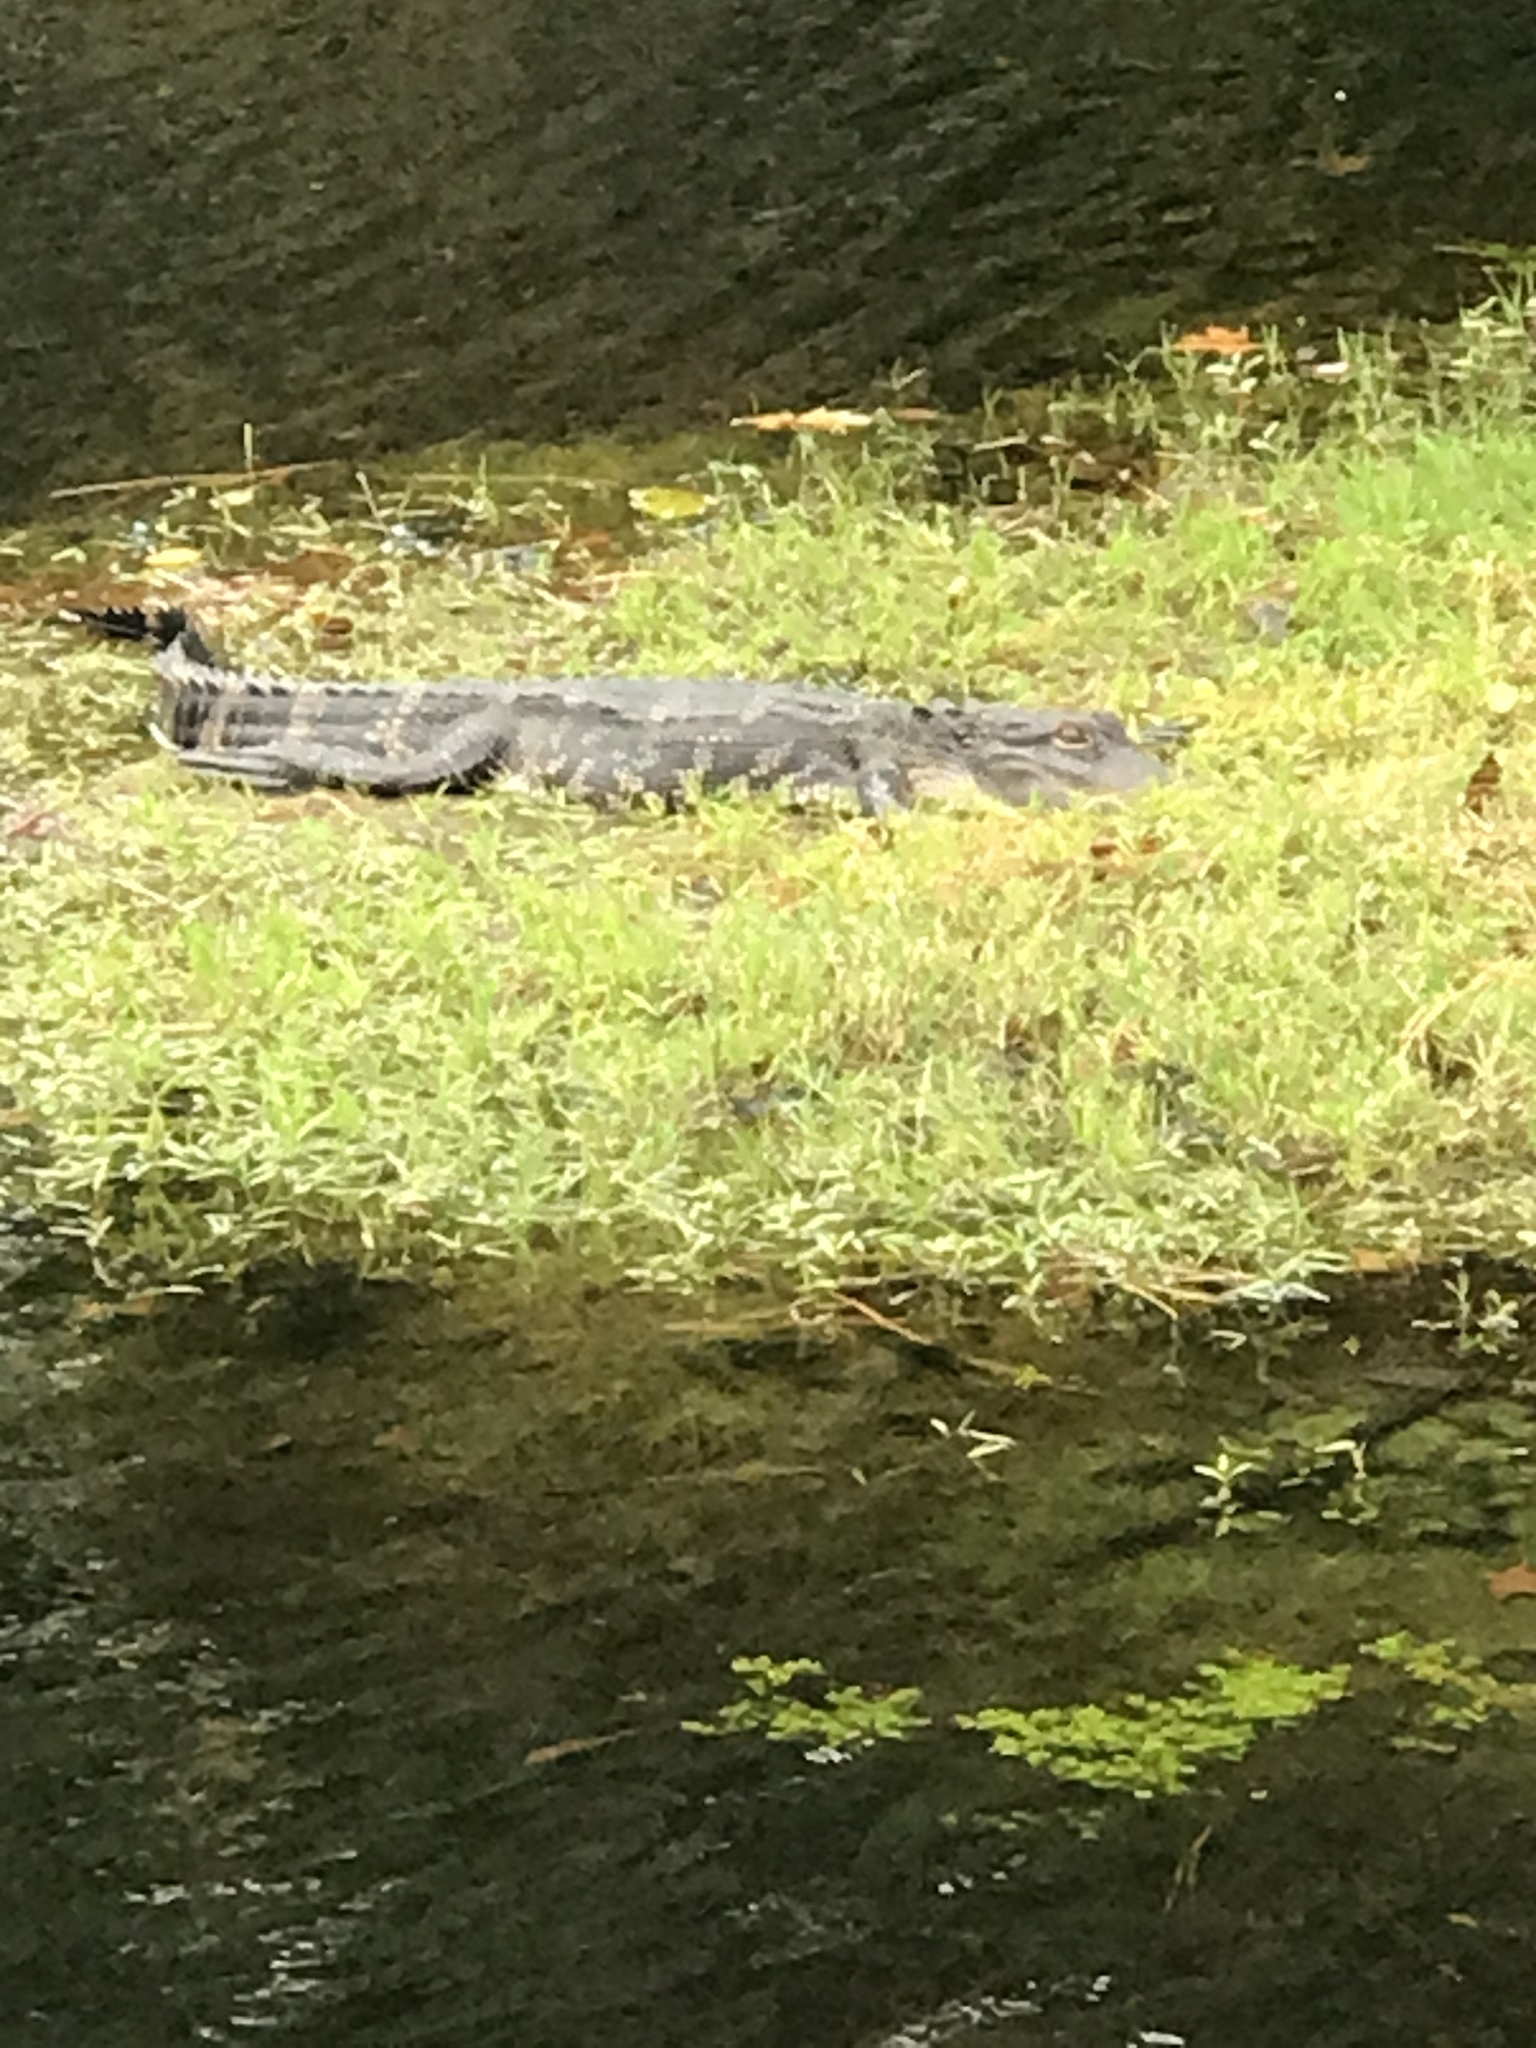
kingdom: Animalia
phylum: Chordata
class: Crocodylia
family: Alligatoridae
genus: Alligator
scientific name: Alligator mississippiensis
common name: American alligator
